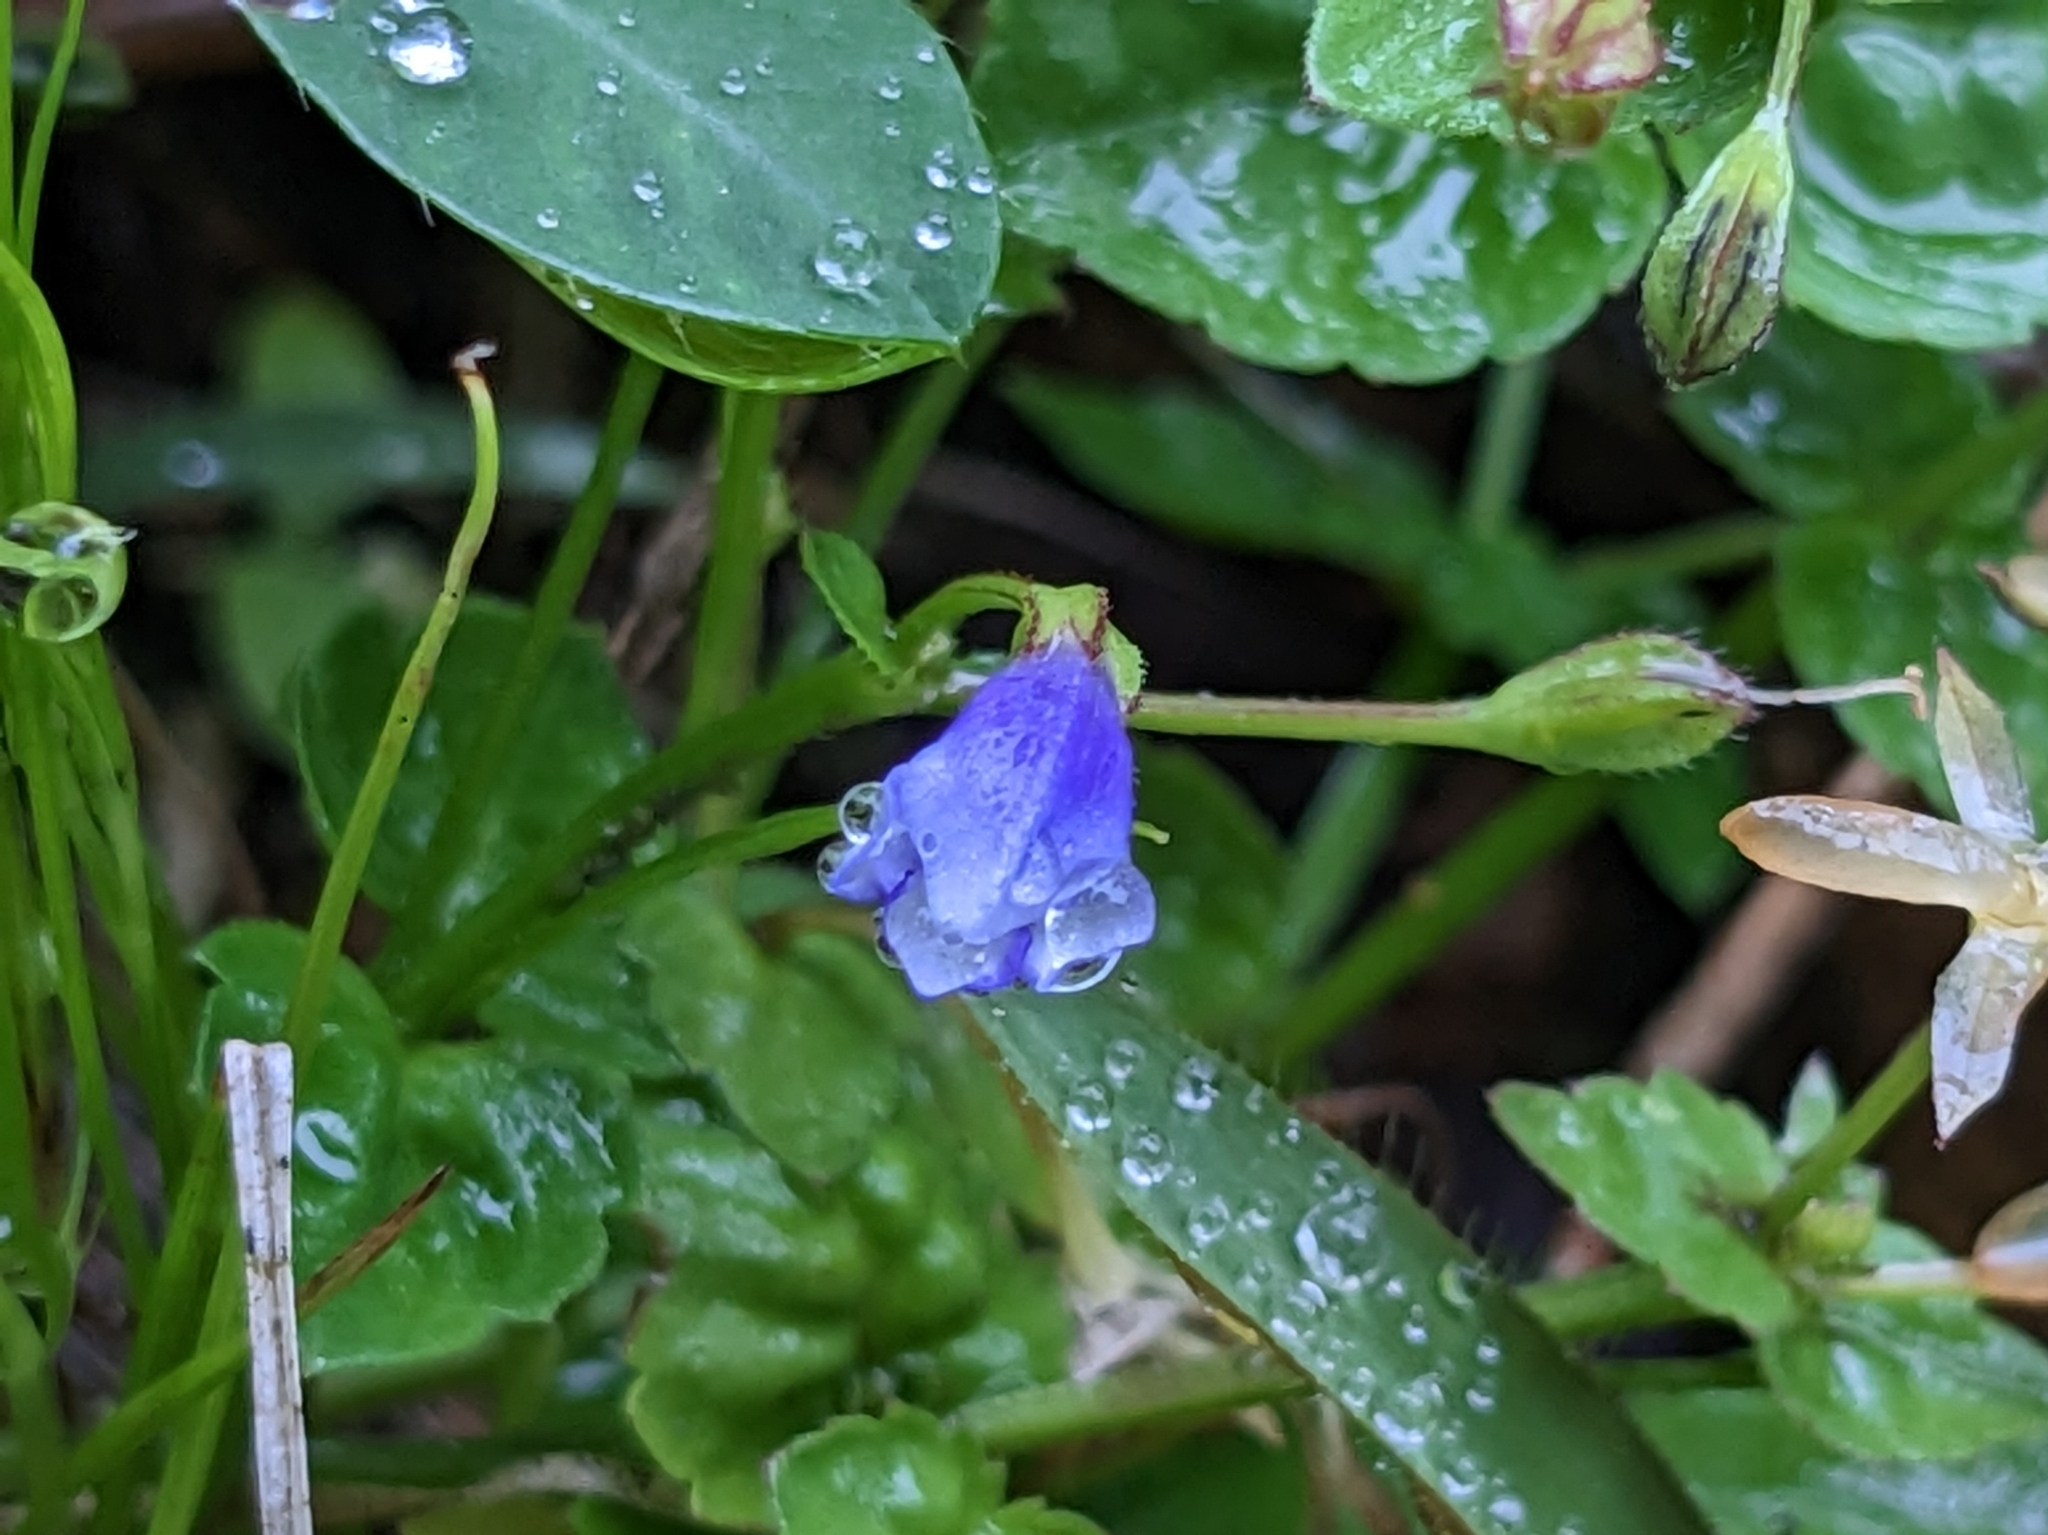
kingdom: Plantae
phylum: Tracheophyta
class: Magnoliopsida
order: Lamiales
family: Linderniaceae
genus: Torenia
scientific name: Torenia crustacea
